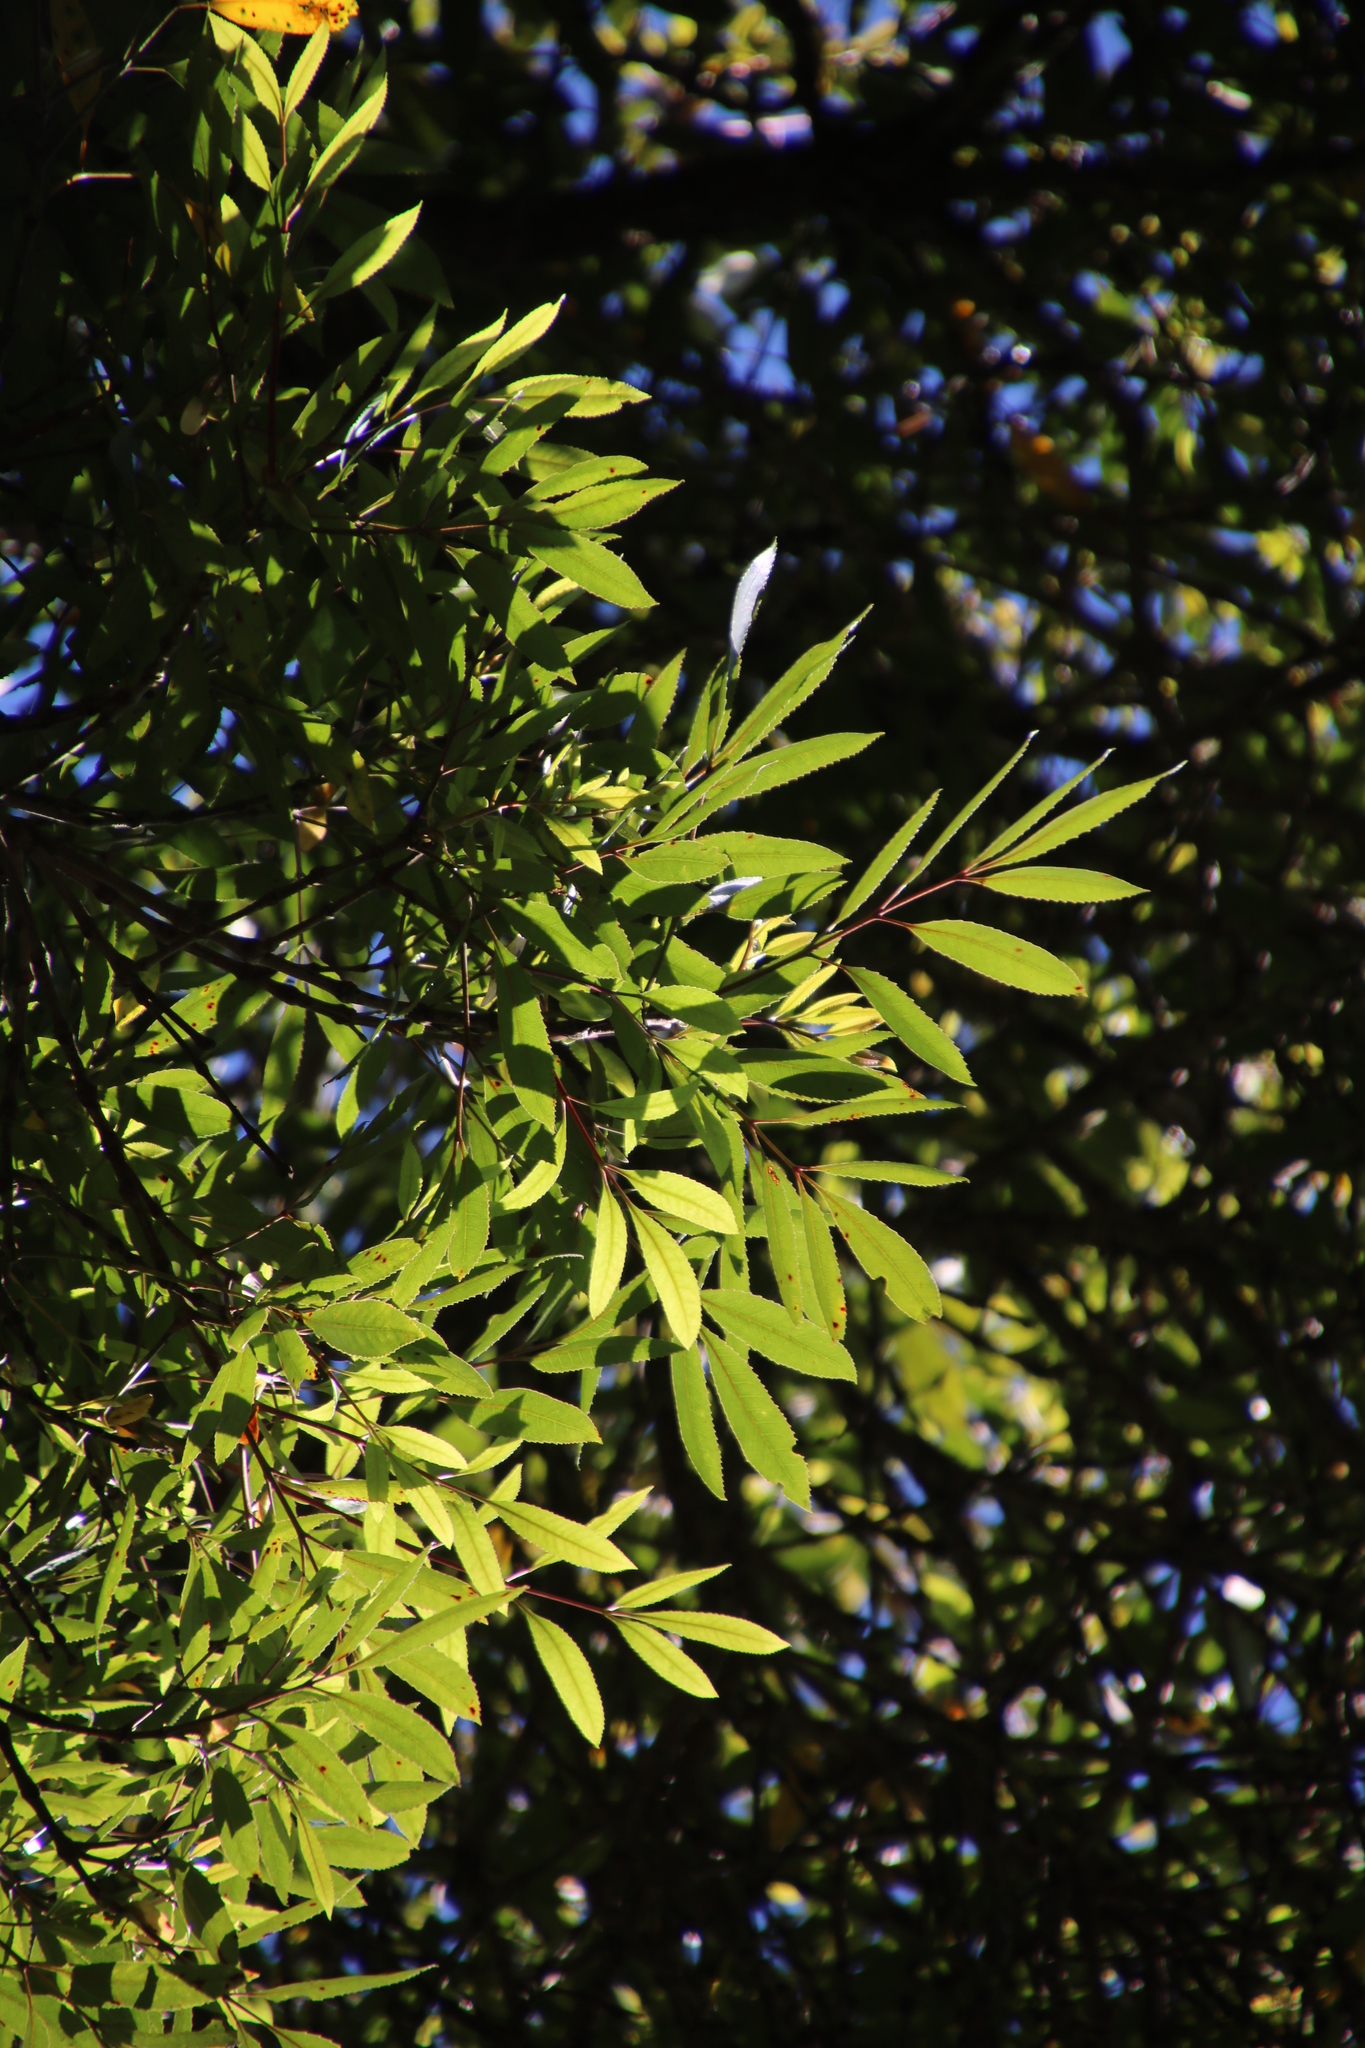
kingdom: Plantae
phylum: Tracheophyta
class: Magnoliopsida
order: Oxalidales
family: Cunoniaceae
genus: Cunonia
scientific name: Cunonia capensis
